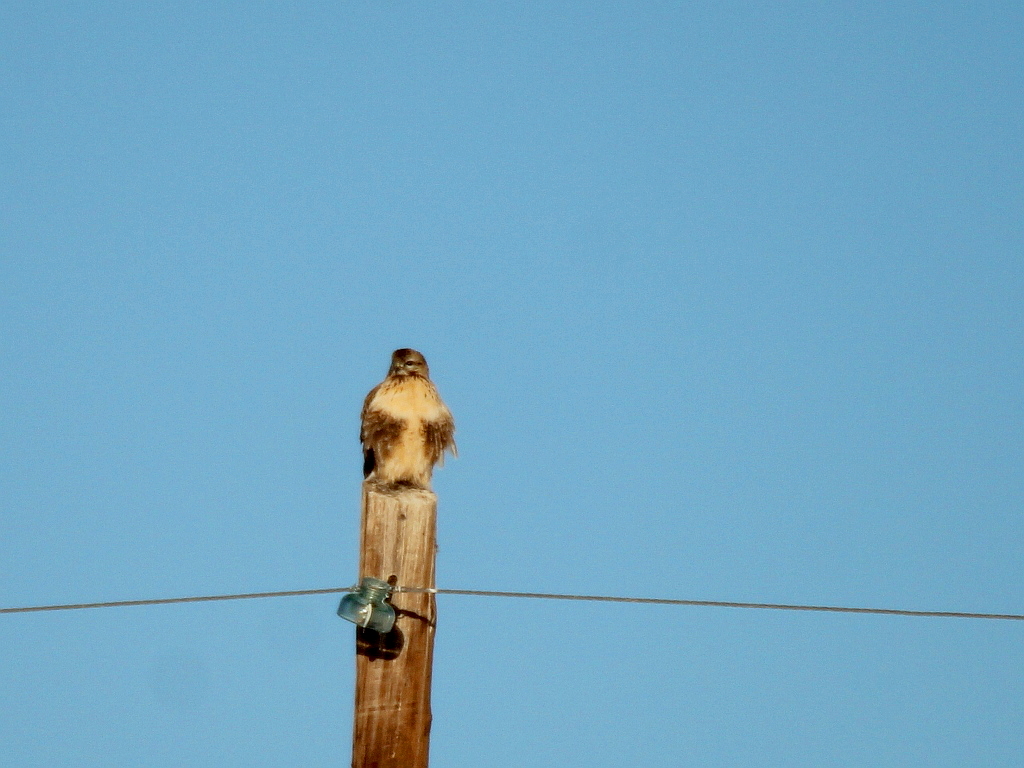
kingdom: Animalia
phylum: Chordata
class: Aves
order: Accipitriformes
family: Accipitridae
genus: Buteo
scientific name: Buteo hemilasius
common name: Upland buzzard
